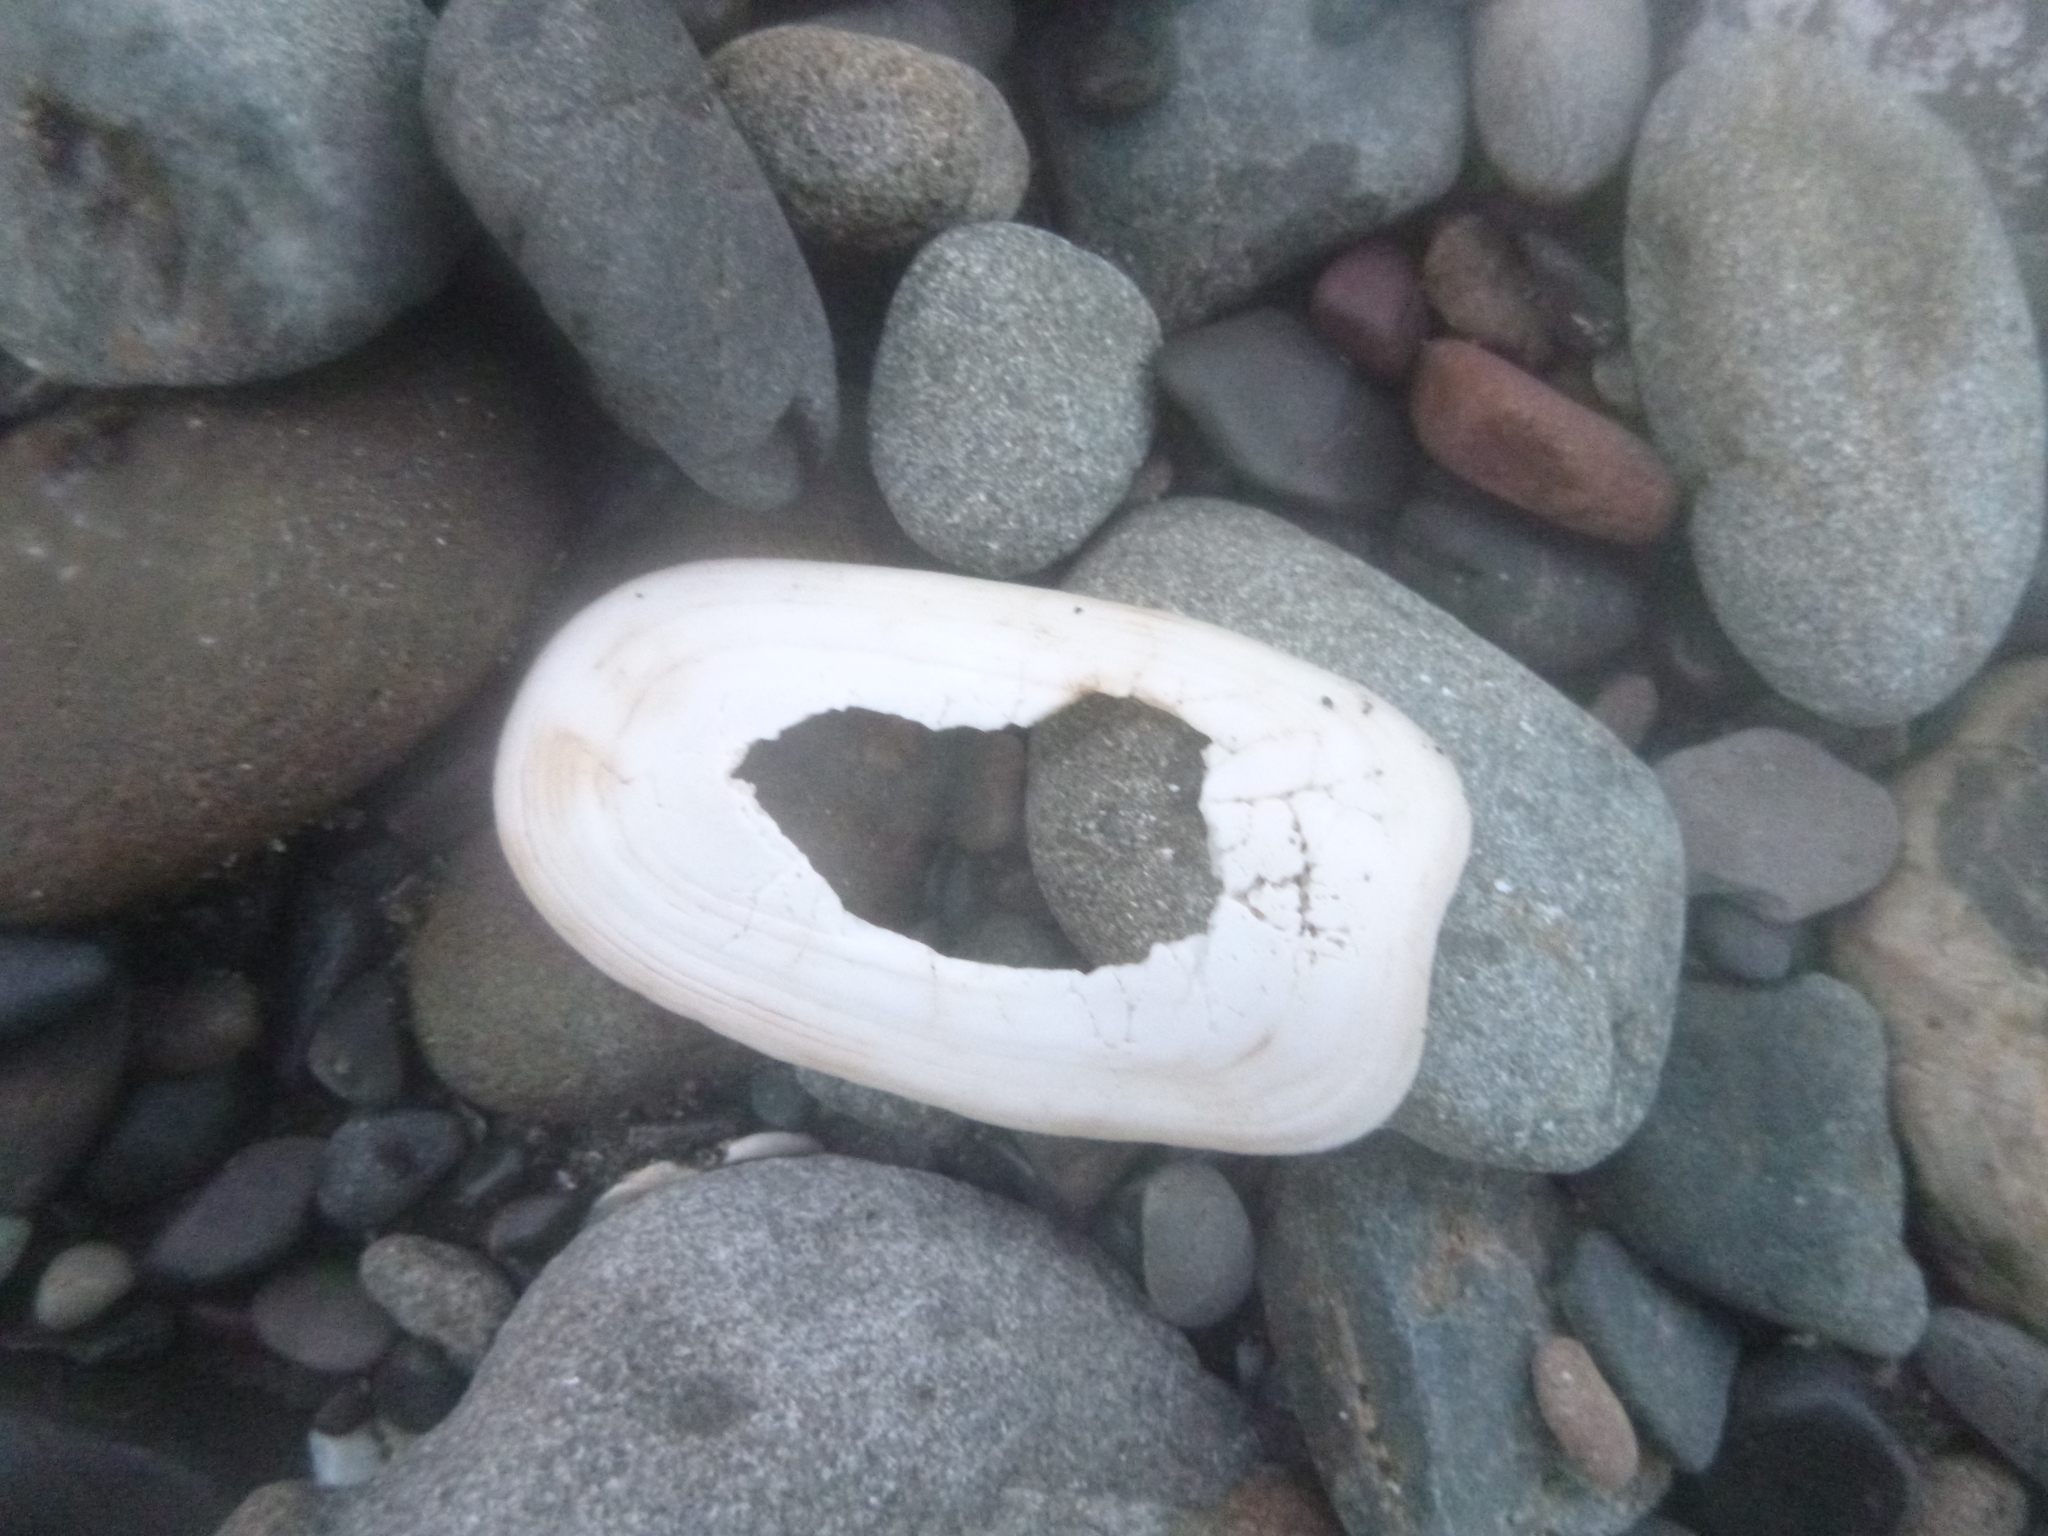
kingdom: Animalia
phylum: Mollusca
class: Gastropoda
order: Lepetellida
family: Fissurellidae
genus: Scutus
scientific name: Scutus breviculus
